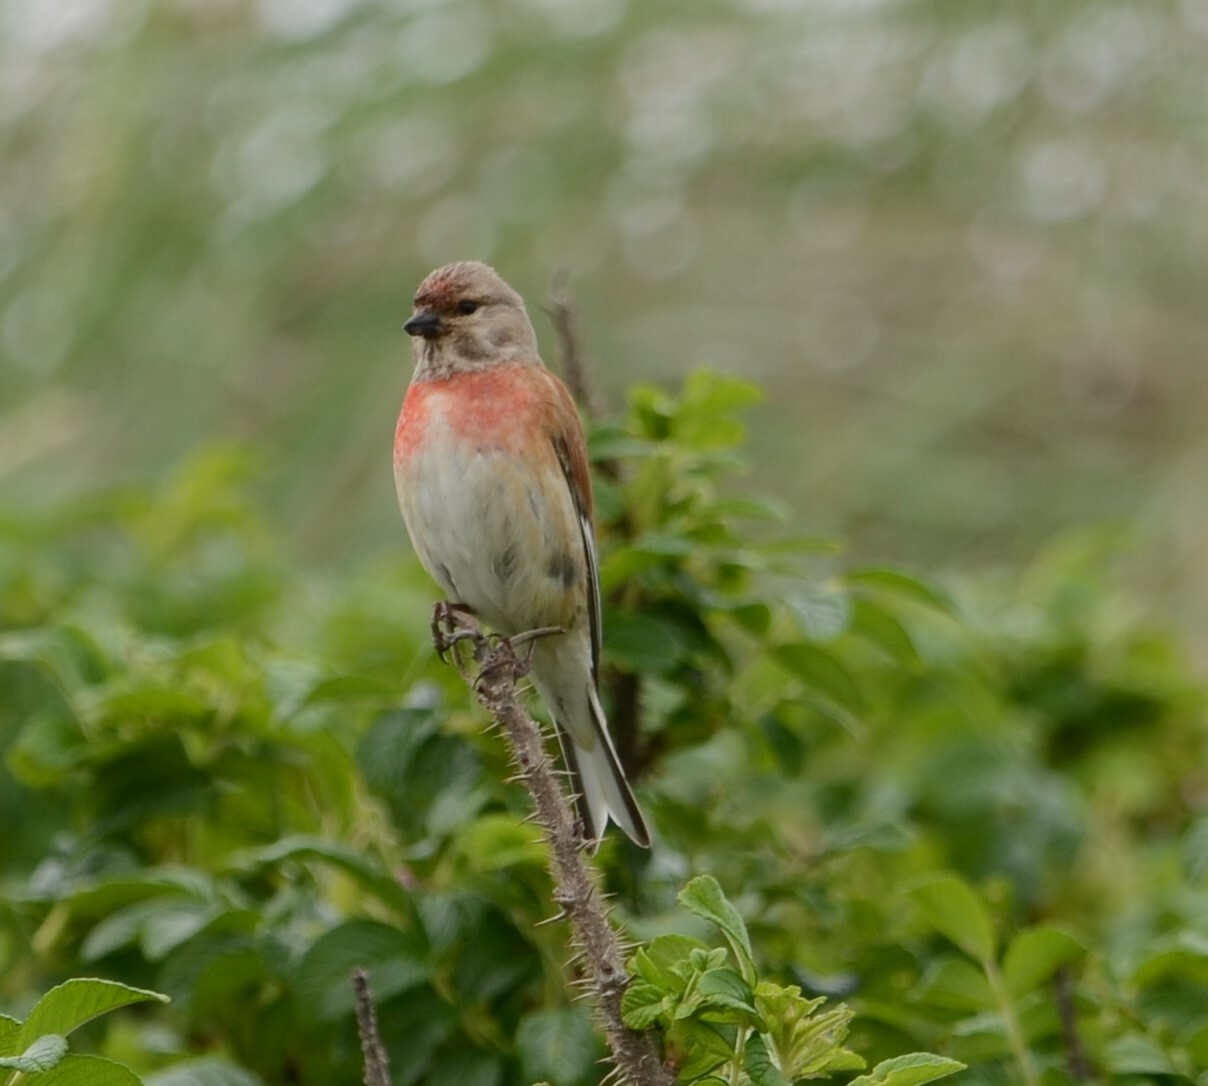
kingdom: Animalia
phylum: Chordata
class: Aves
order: Passeriformes
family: Fringillidae
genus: Linaria
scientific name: Linaria cannabina
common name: Common linnet
